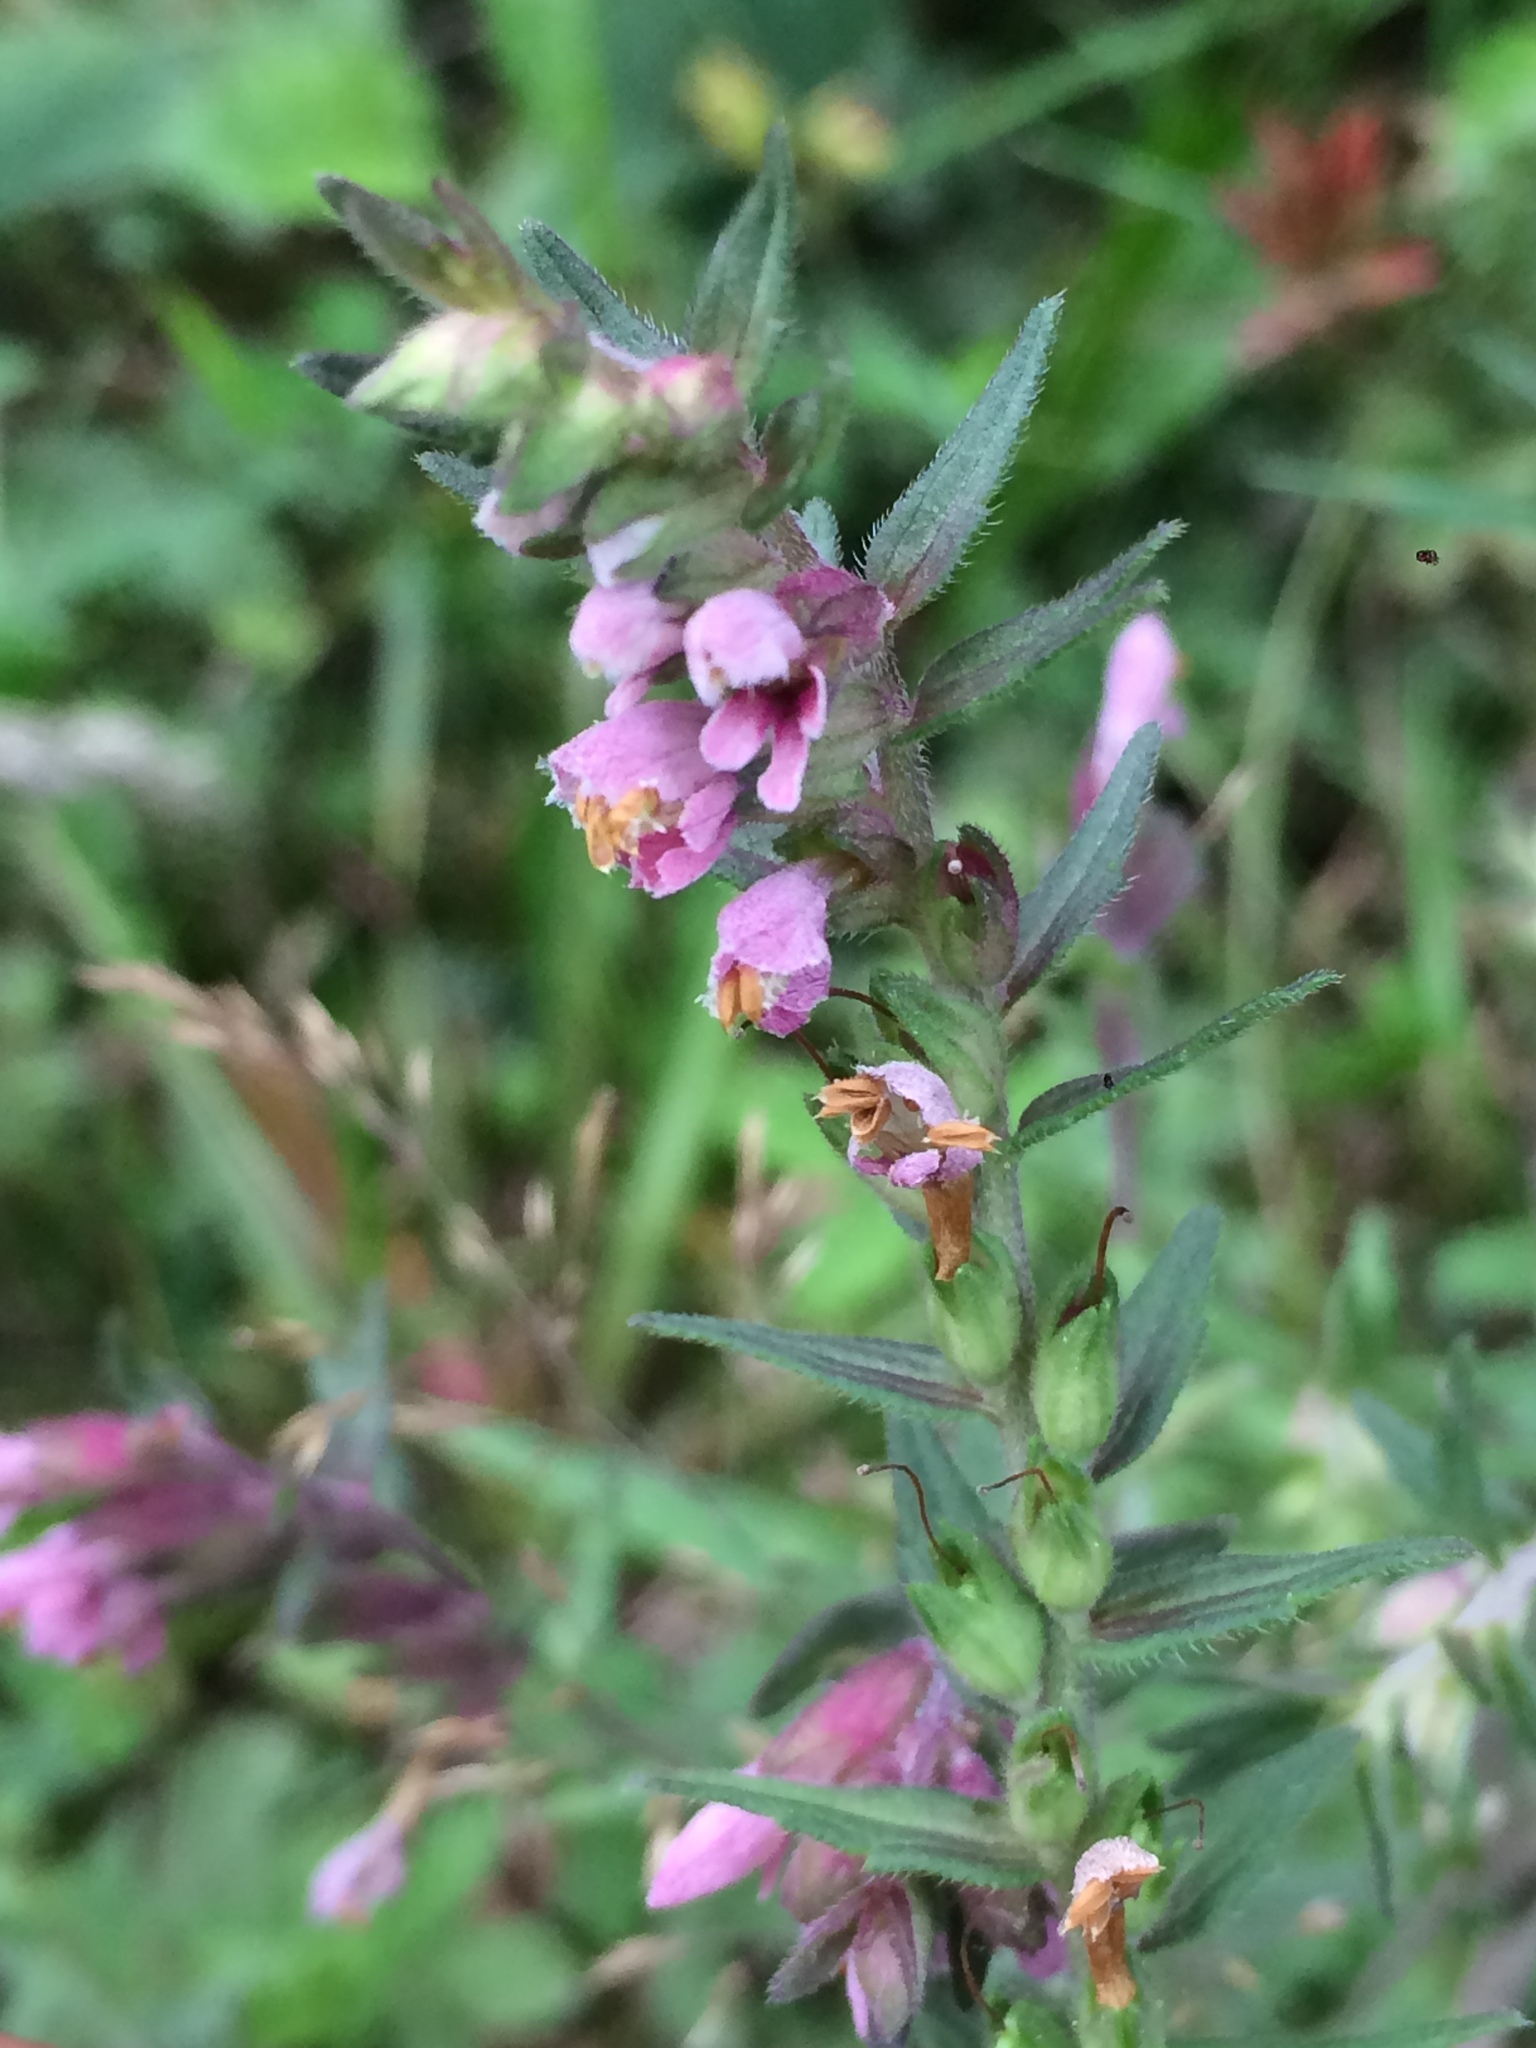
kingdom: Plantae
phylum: Tracheophyta
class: Magnoliopsida
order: Lamiales
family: Orobanchaceae
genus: Odontites
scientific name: Odontites vernus
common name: Red bartsia
